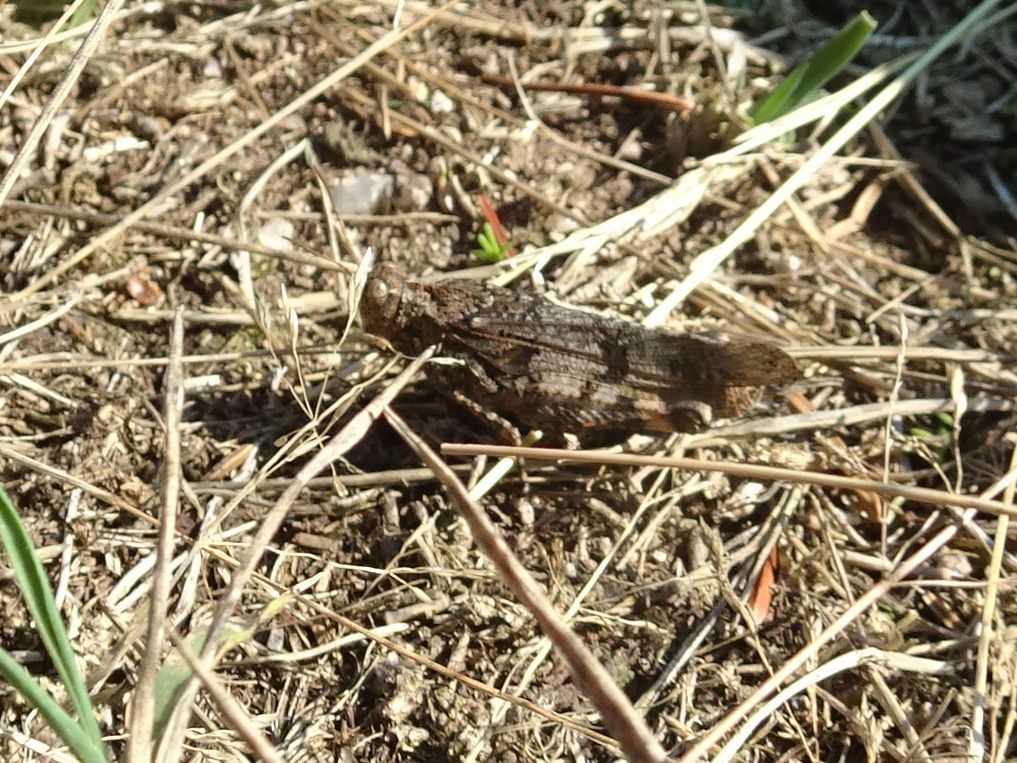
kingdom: Animalia
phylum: Arthropoda
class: Insecta
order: Orthoptera
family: Acrididae
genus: Oedipoda
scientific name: Oedipoda caerulescens
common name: Blue-winged grasshopper
